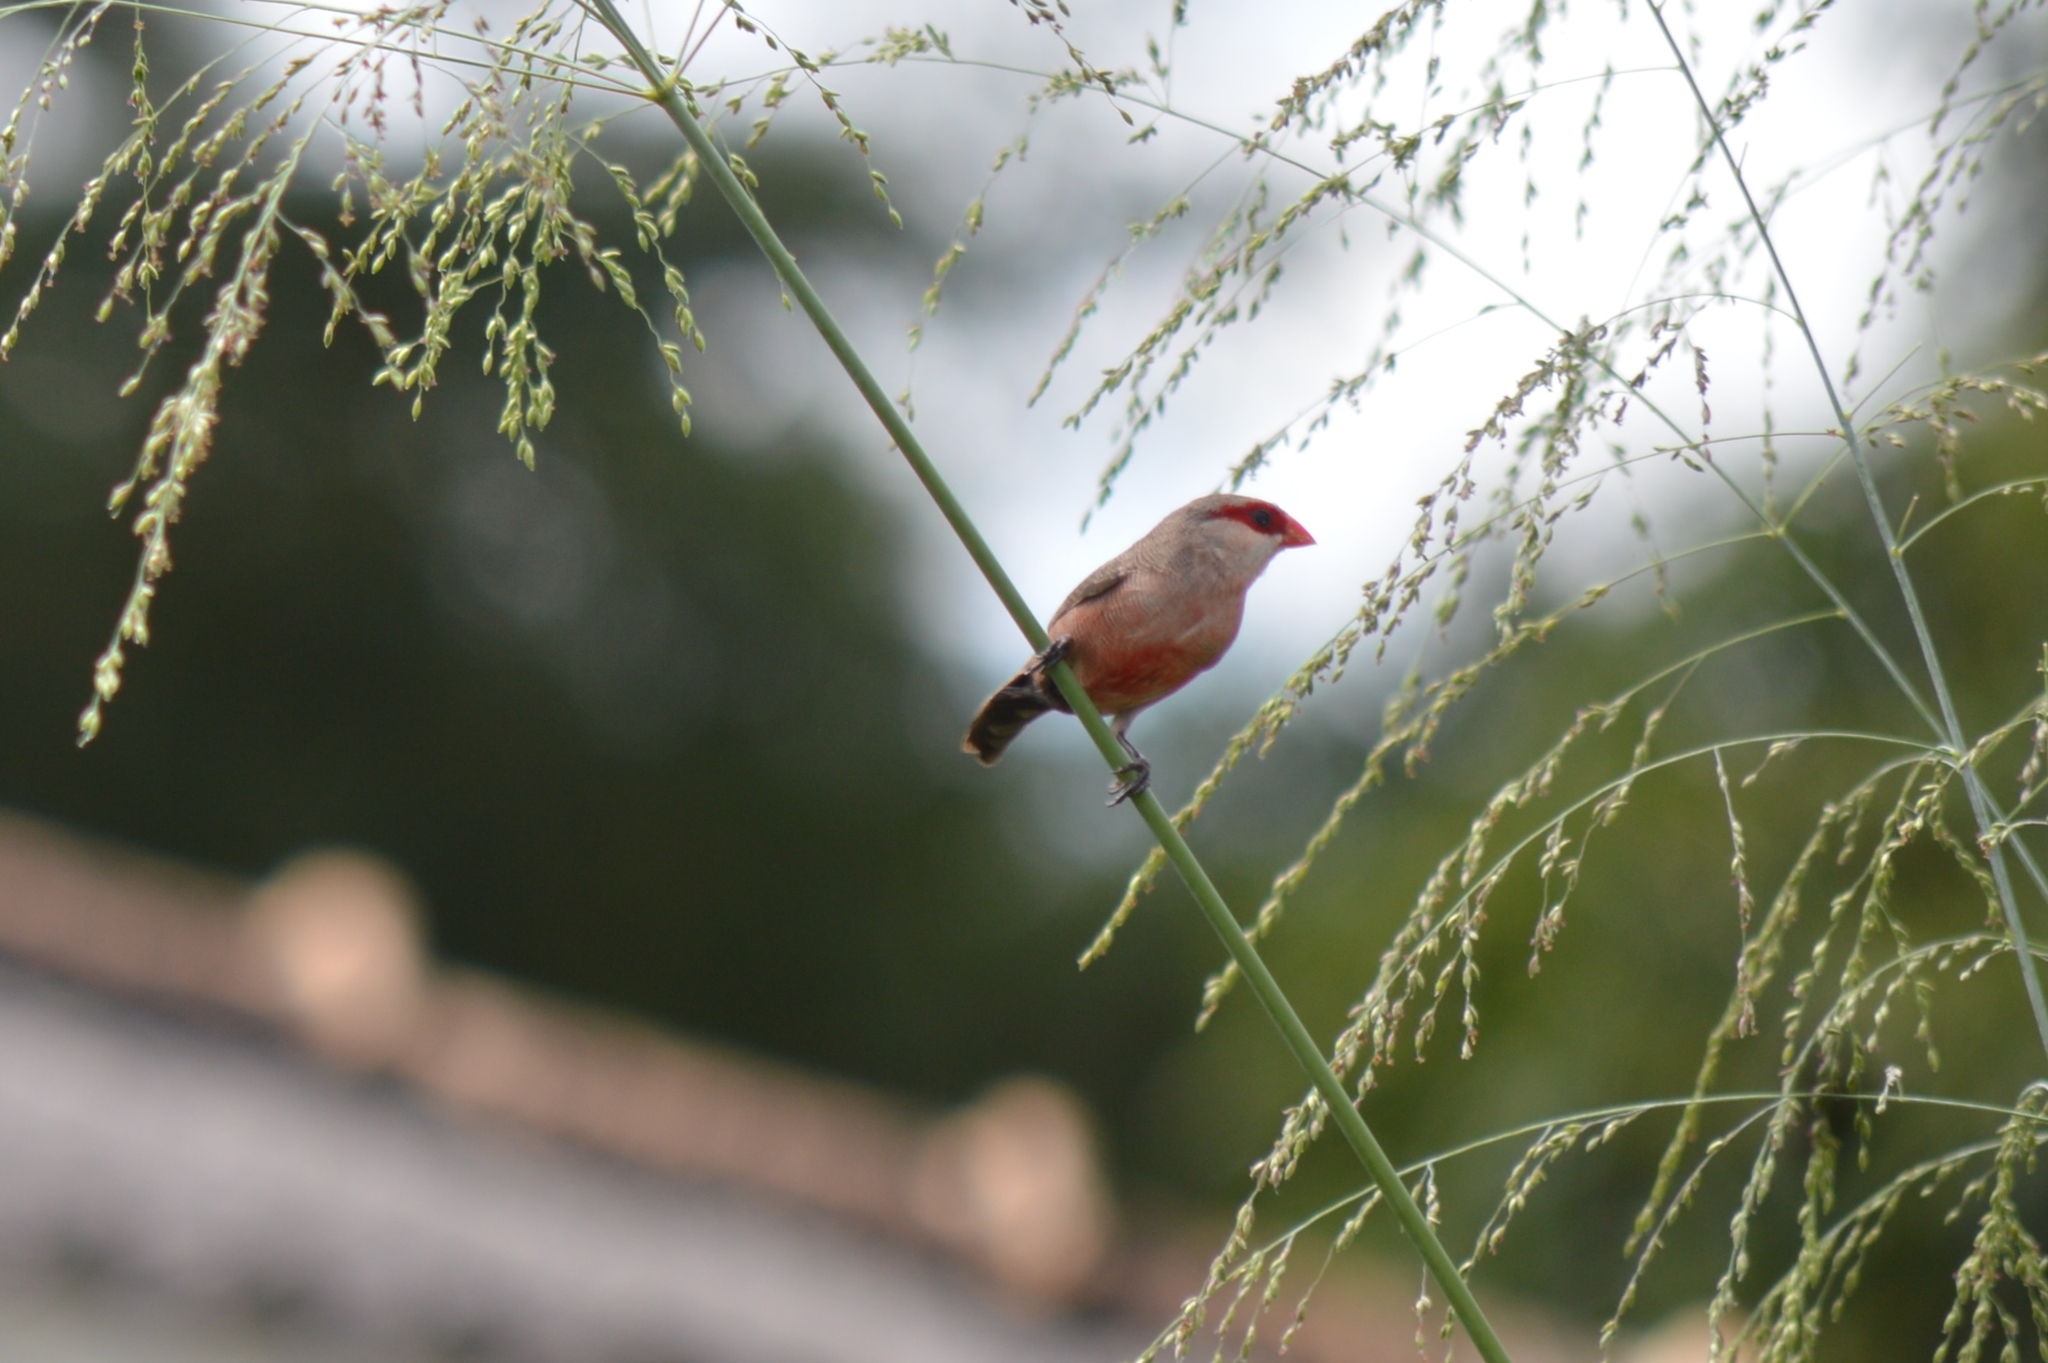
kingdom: Animalia
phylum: Chordata
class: Aves
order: Passeriformes
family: Estrildidae
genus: Estrilda
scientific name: Estrilda astrild
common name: Common waxbill
